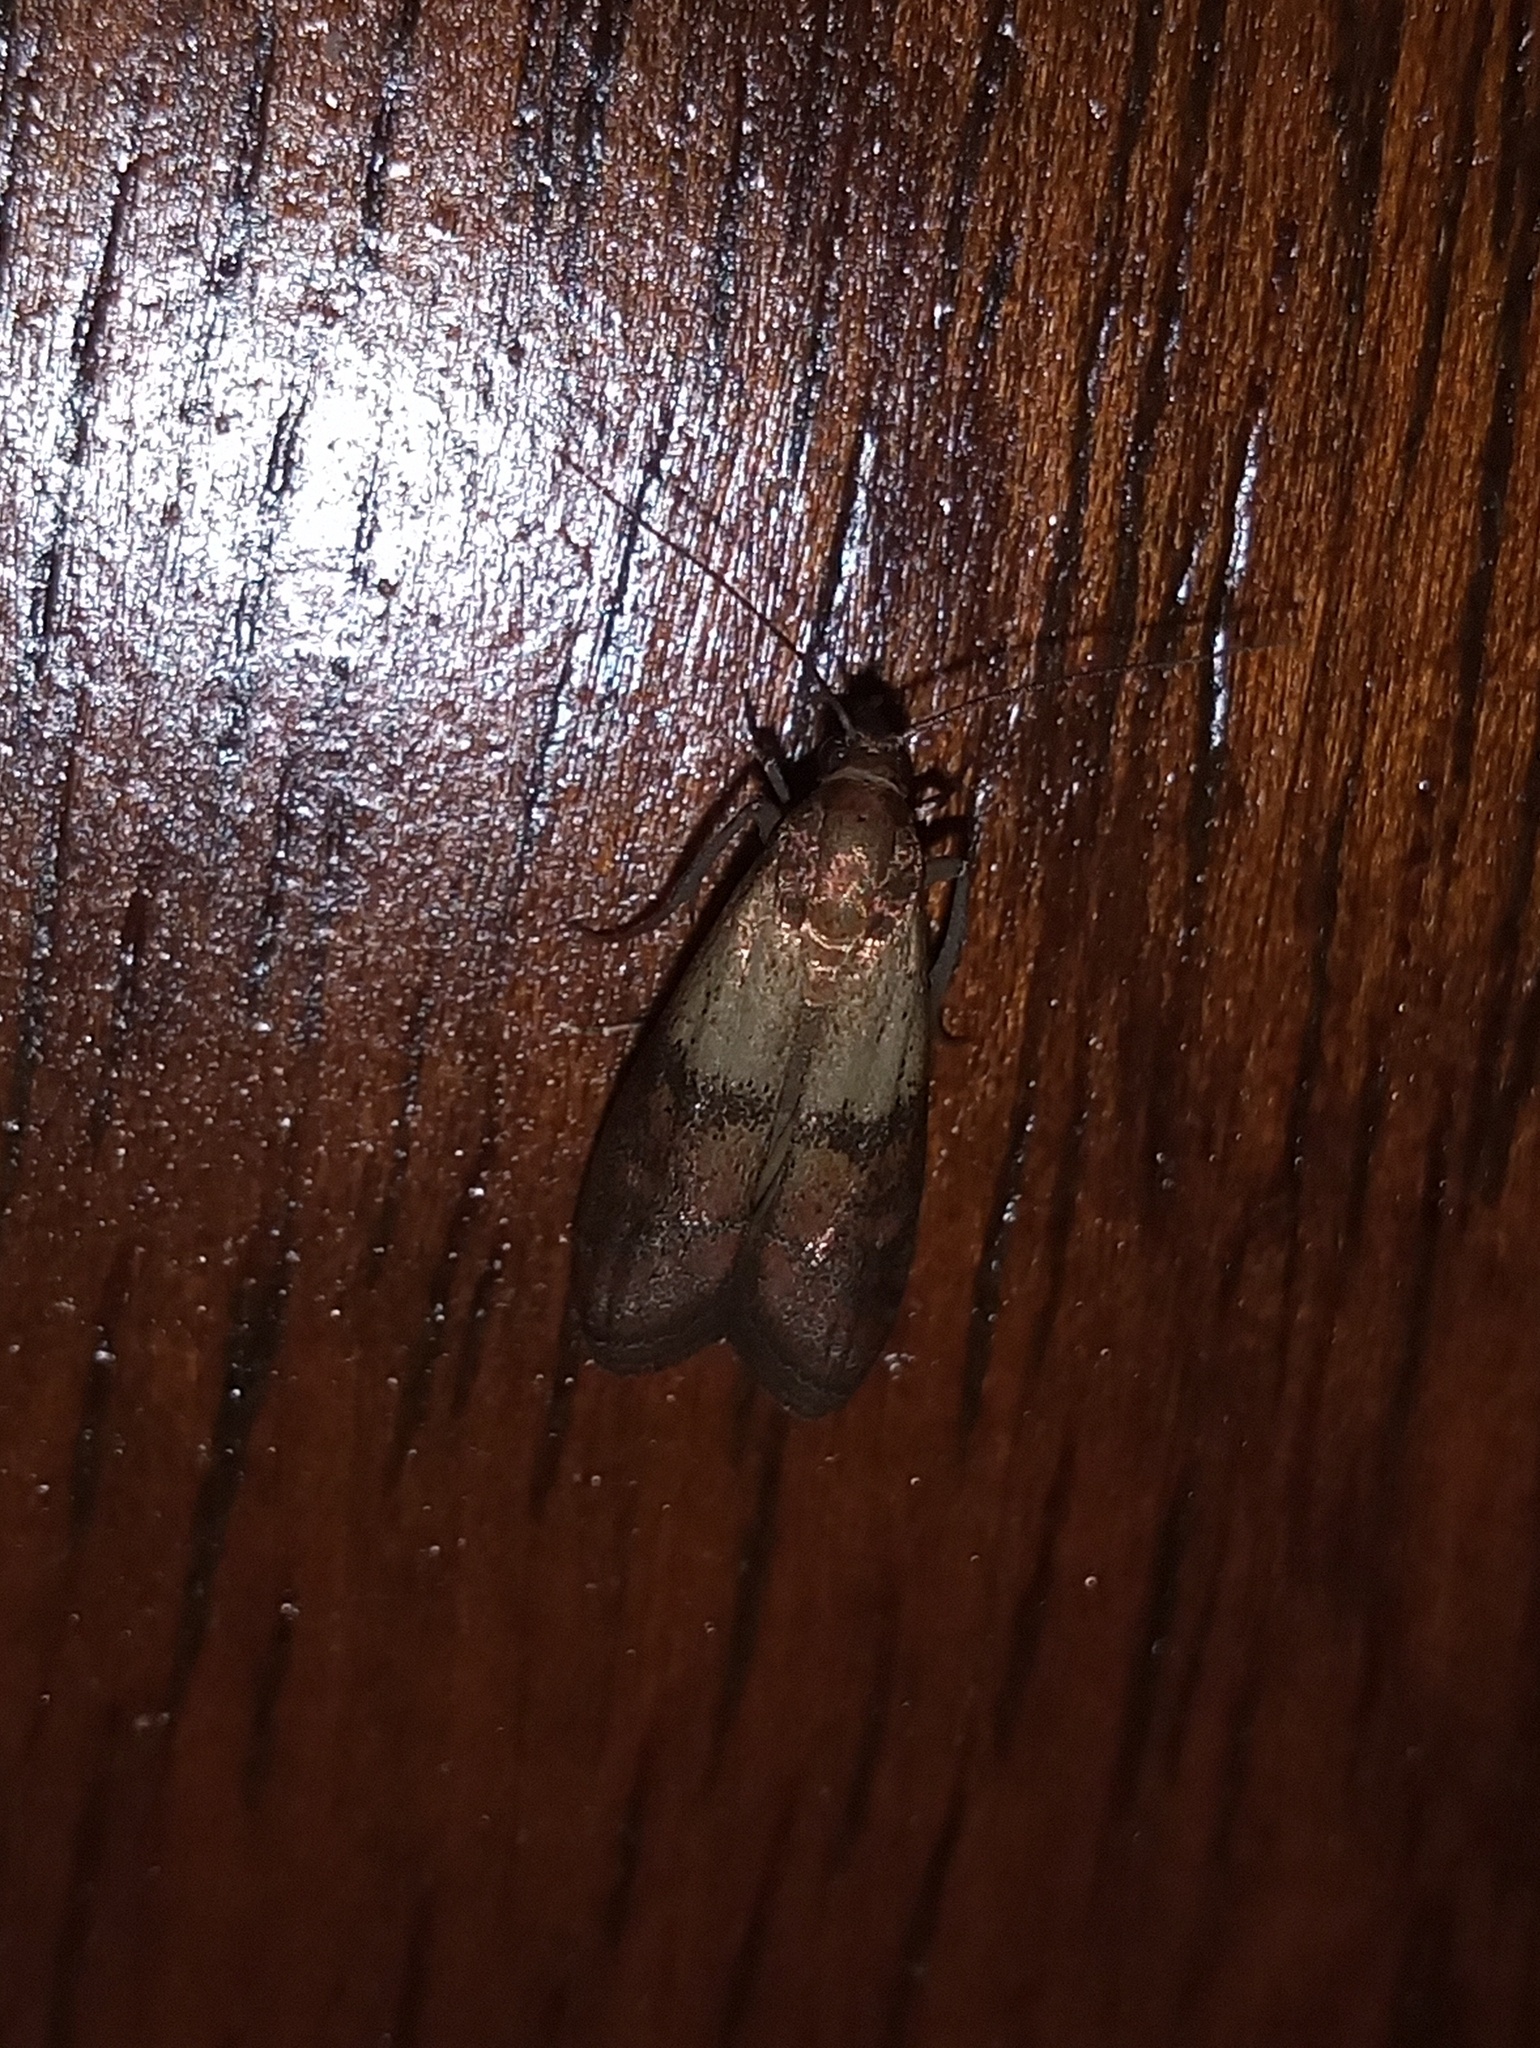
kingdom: Animalia
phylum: Arthropoda
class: Insecta
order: Lepidoptera
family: Pyralidae
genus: Plodia
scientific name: Plodia interpunctella
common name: Indian meal moth
